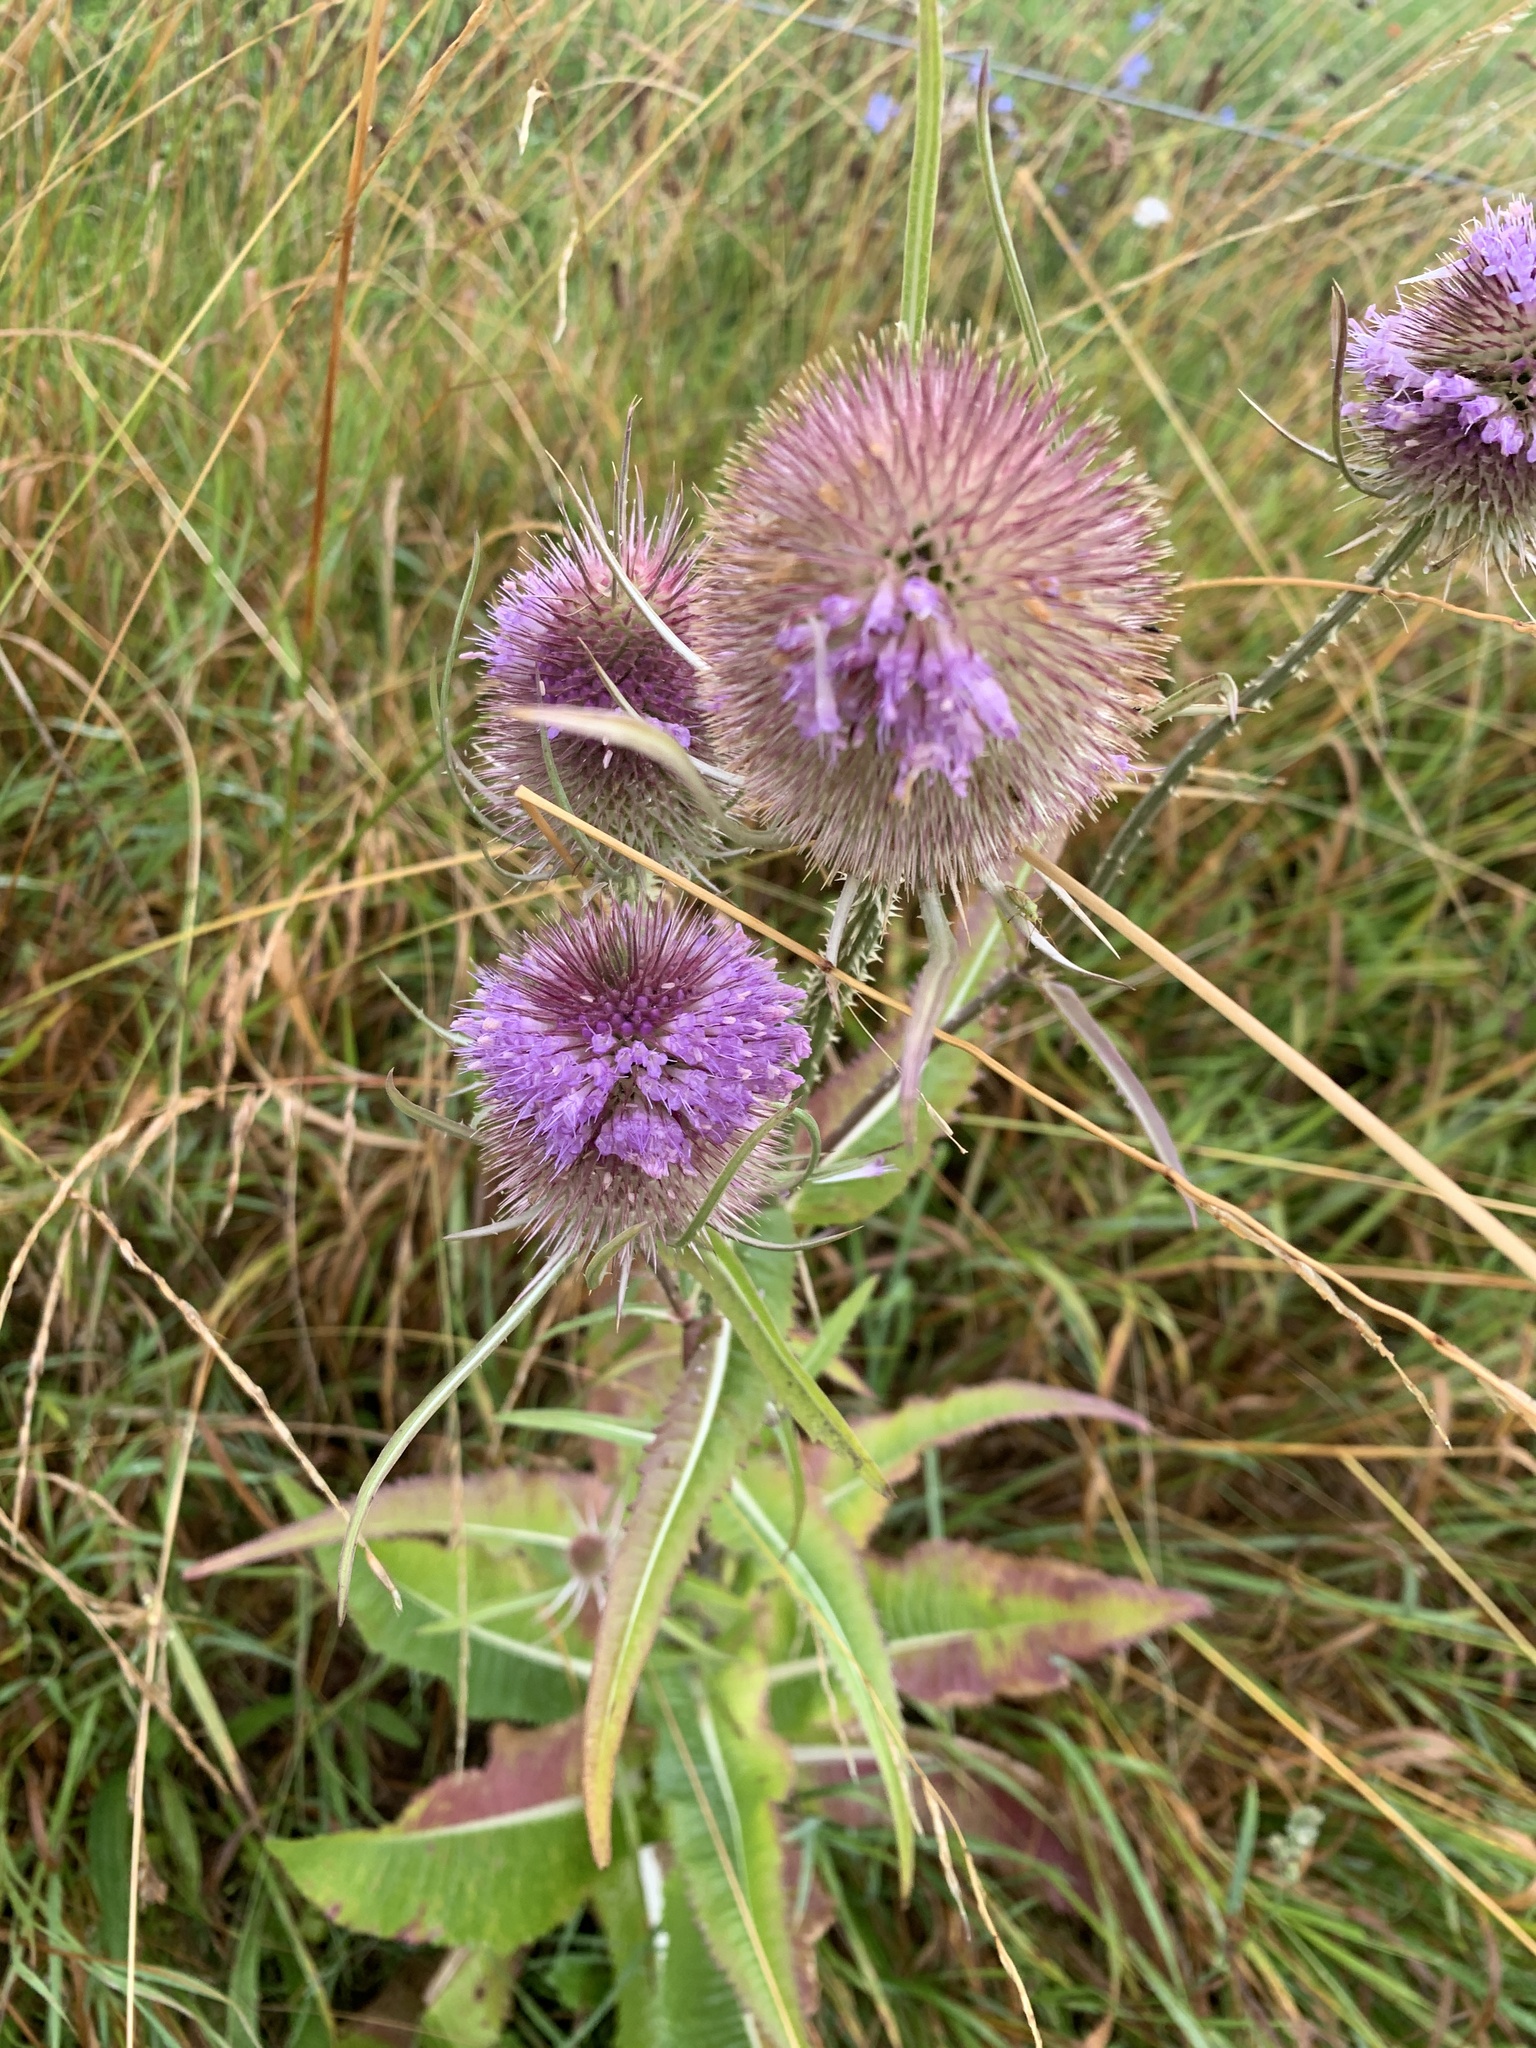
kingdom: Plantae
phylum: Tracheophyta
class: Magnoliopsida
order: Dipsacales
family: Caprifoliaceae
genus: Dipsacus
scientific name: Dipsacus fullonum
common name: Teasel
